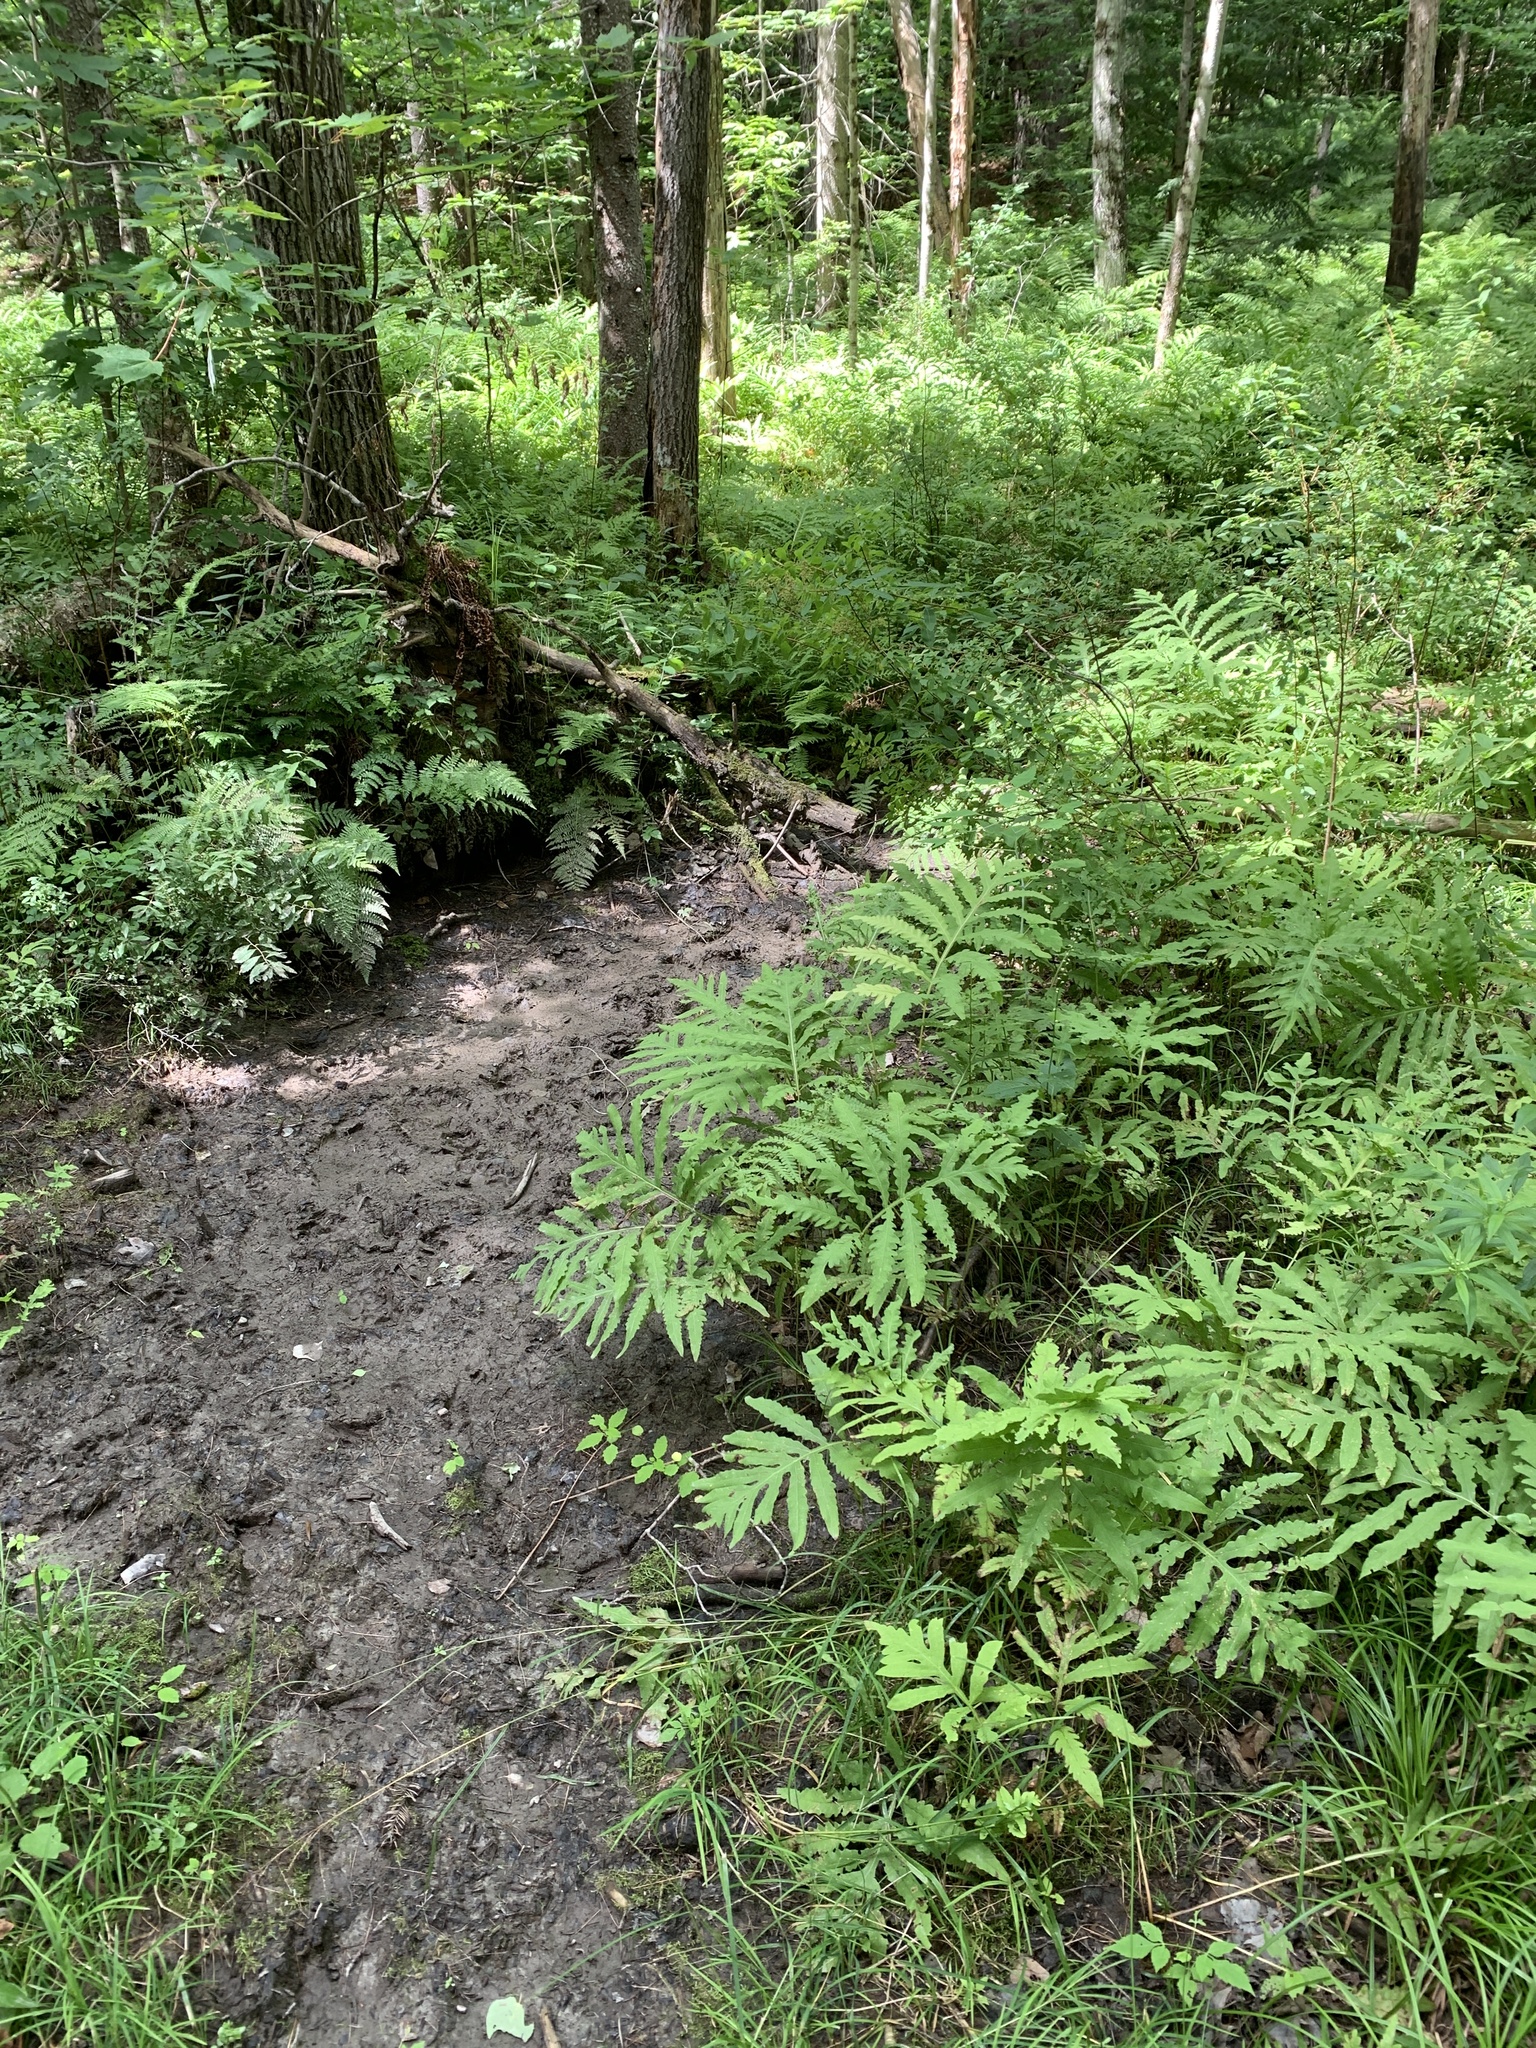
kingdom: Plantae
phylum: Tracheophyta
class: Polypodiopsida
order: Polypodiales
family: Onocleaceae
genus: Onoclea
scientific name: Onoclea sensibilis
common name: Sensitive fern
